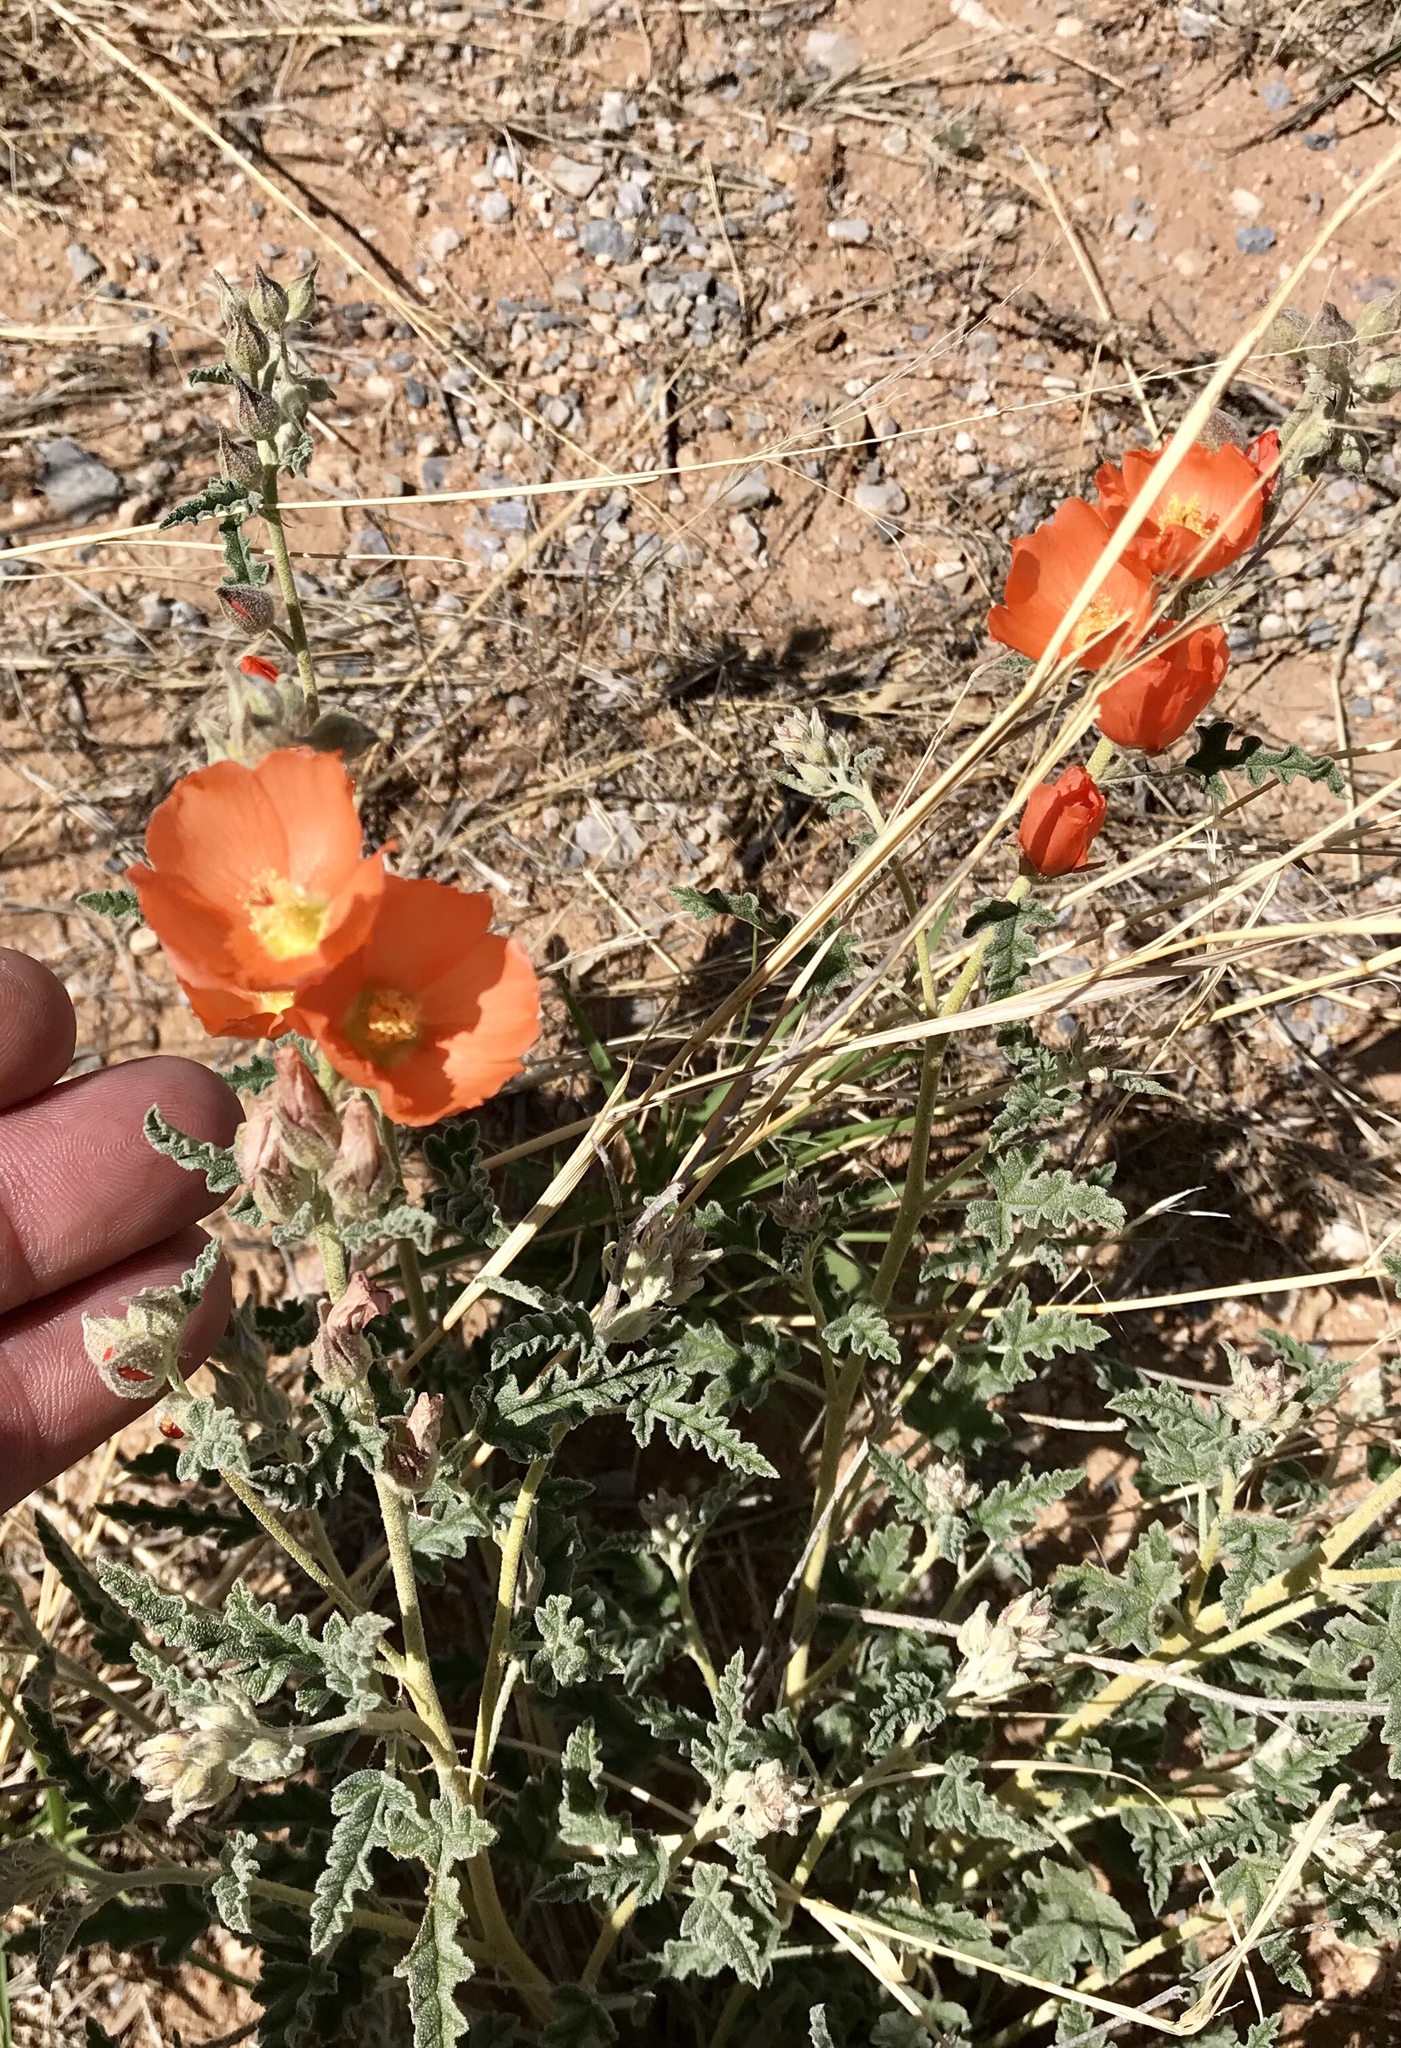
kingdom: Plantae
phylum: Tracheophyta
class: Magnoliopsida
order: Malvales
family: Malvaceae
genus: Sphaeralcea
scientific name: Sphaeralcea hastulata
